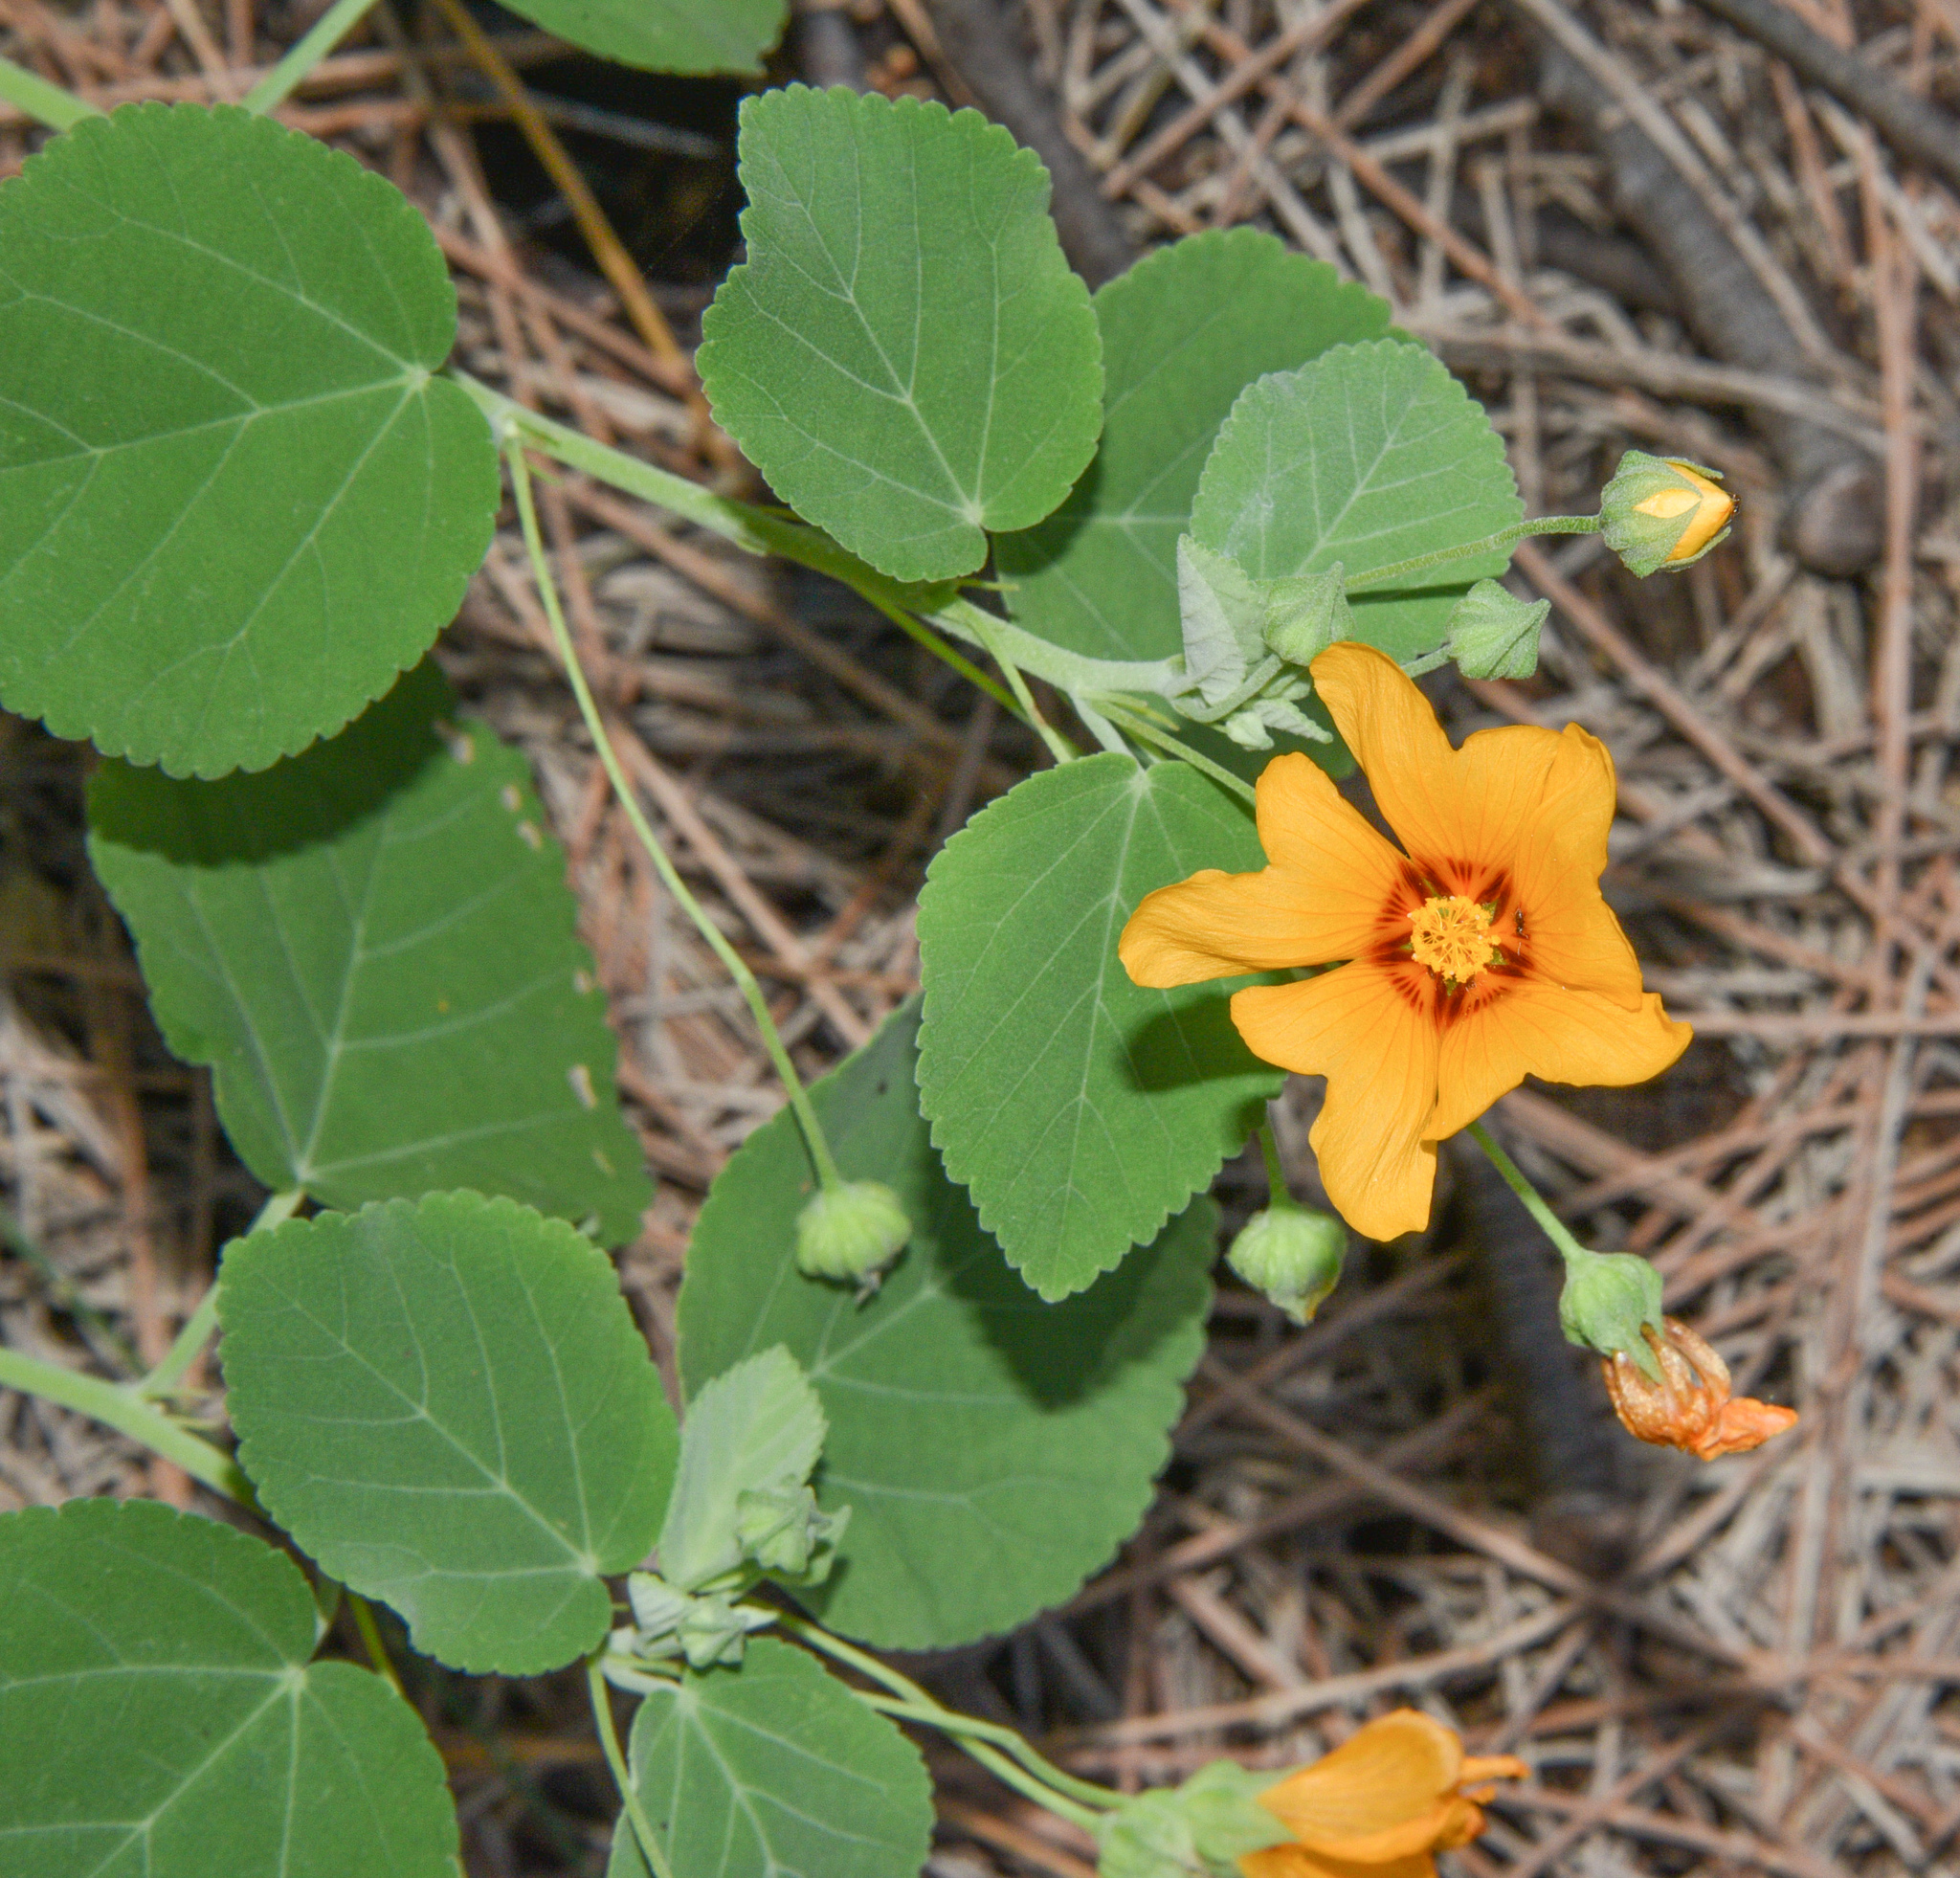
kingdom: Plantae
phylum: Tracheophyta
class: Magnoliopsida
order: Malvales
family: Malvaceae
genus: Sida
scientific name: Sida fallax
